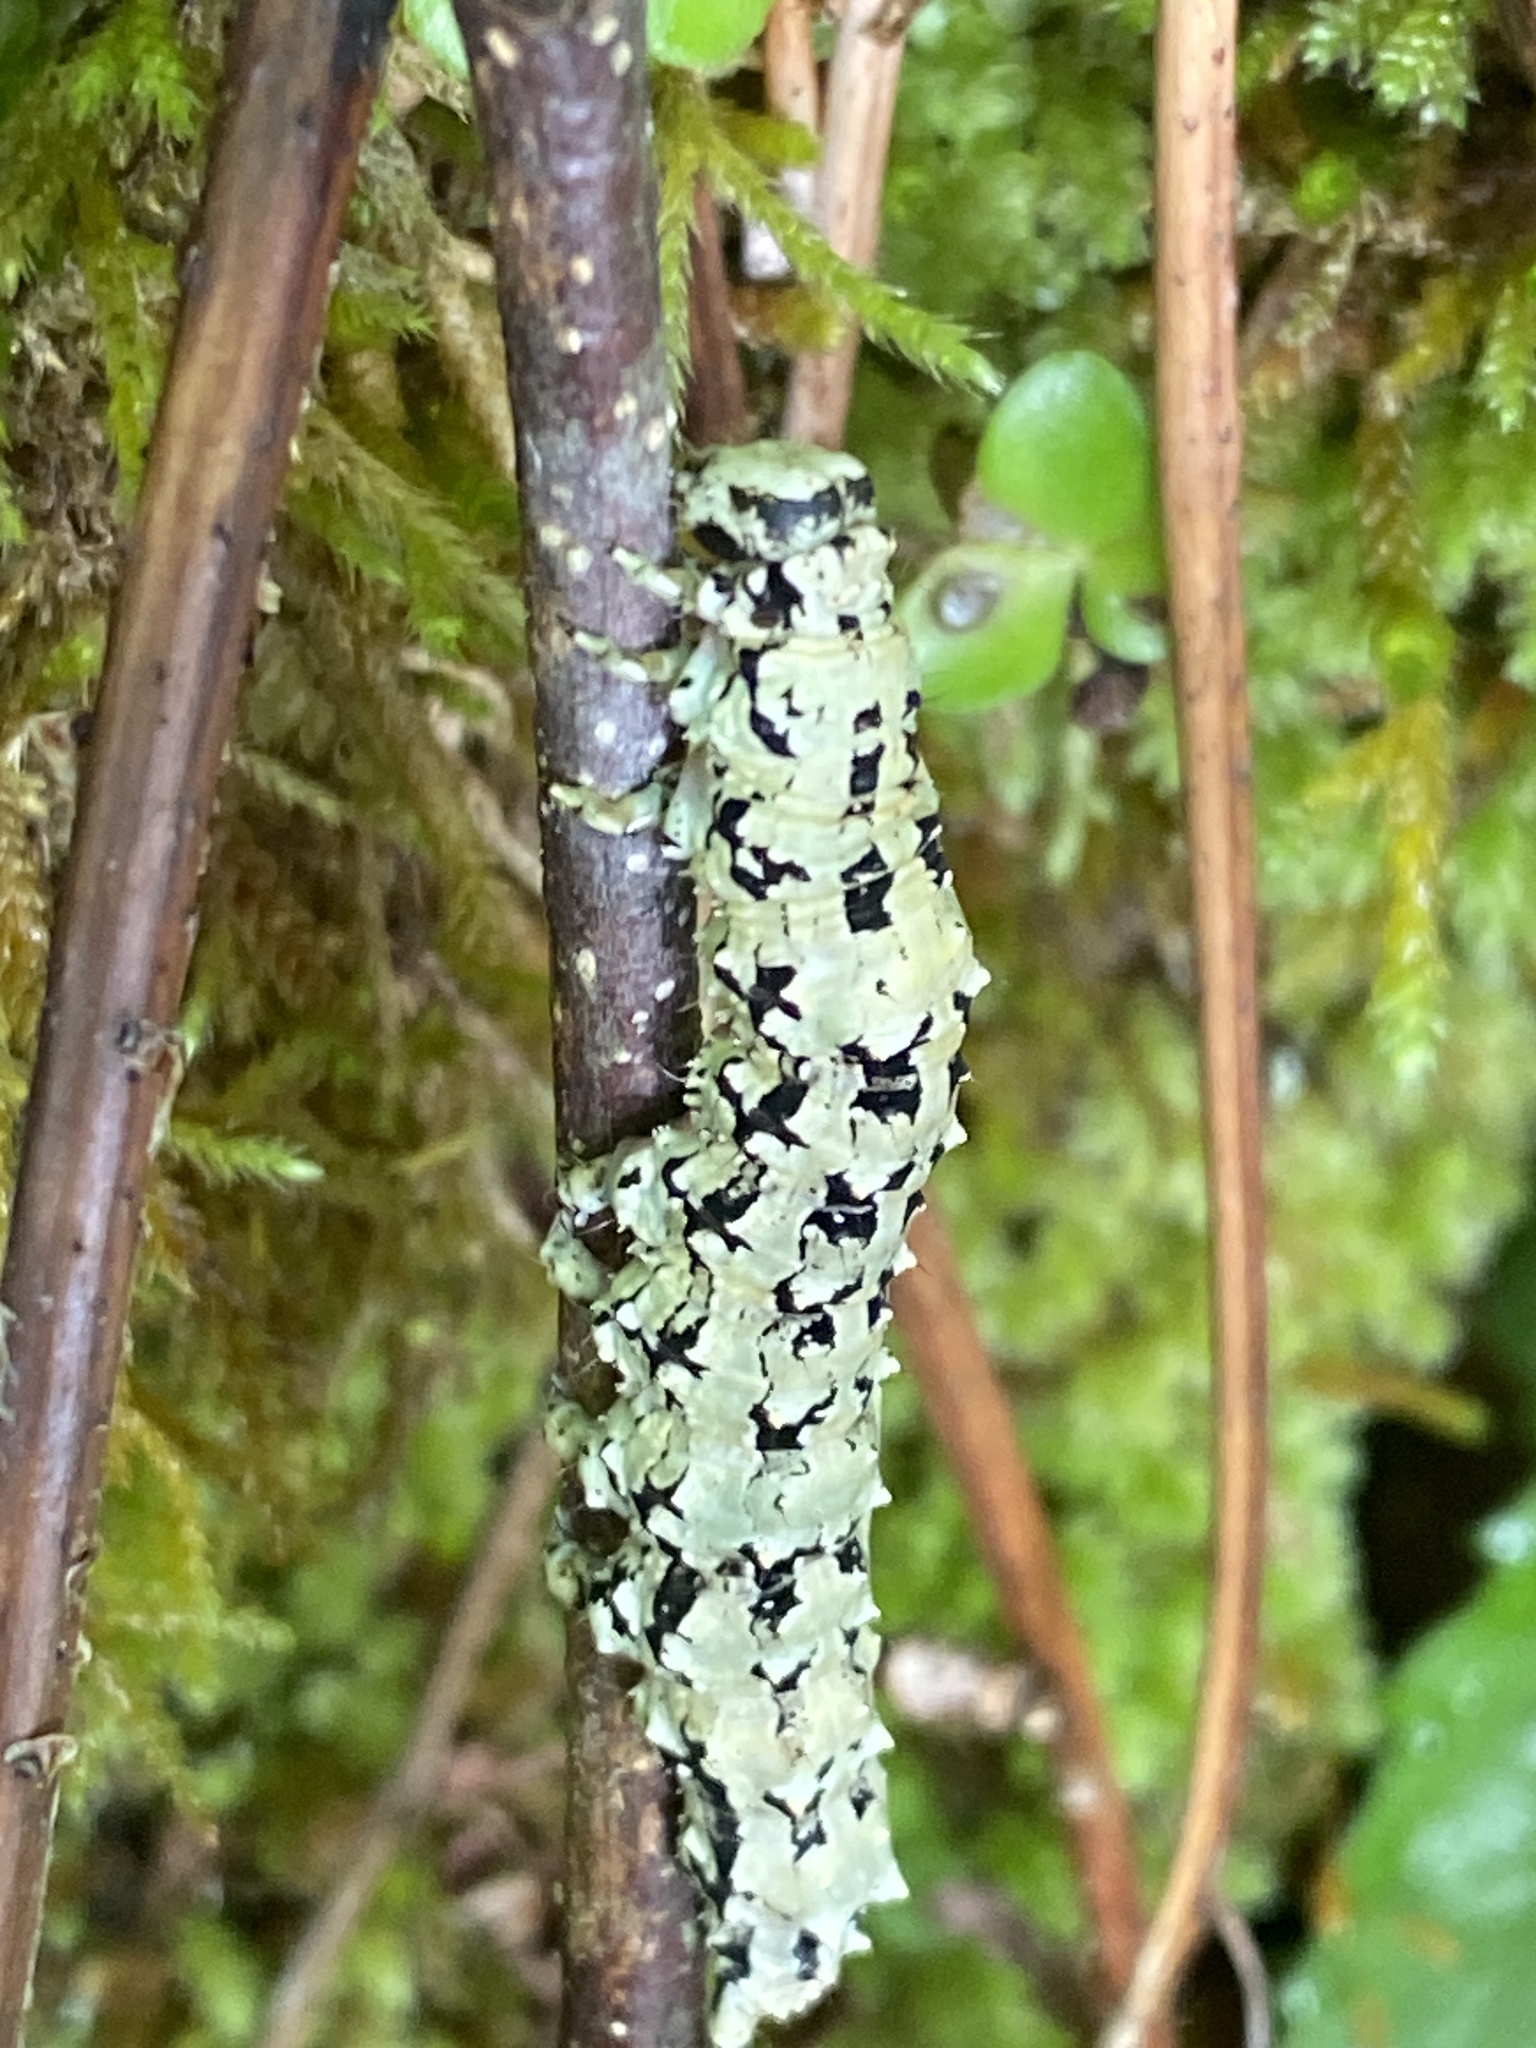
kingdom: Animalia
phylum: Arthropoda
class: Insecta
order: Lepidoptera
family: Erebidae
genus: Catocala
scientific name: Catocala ilia
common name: Ilia underwing
